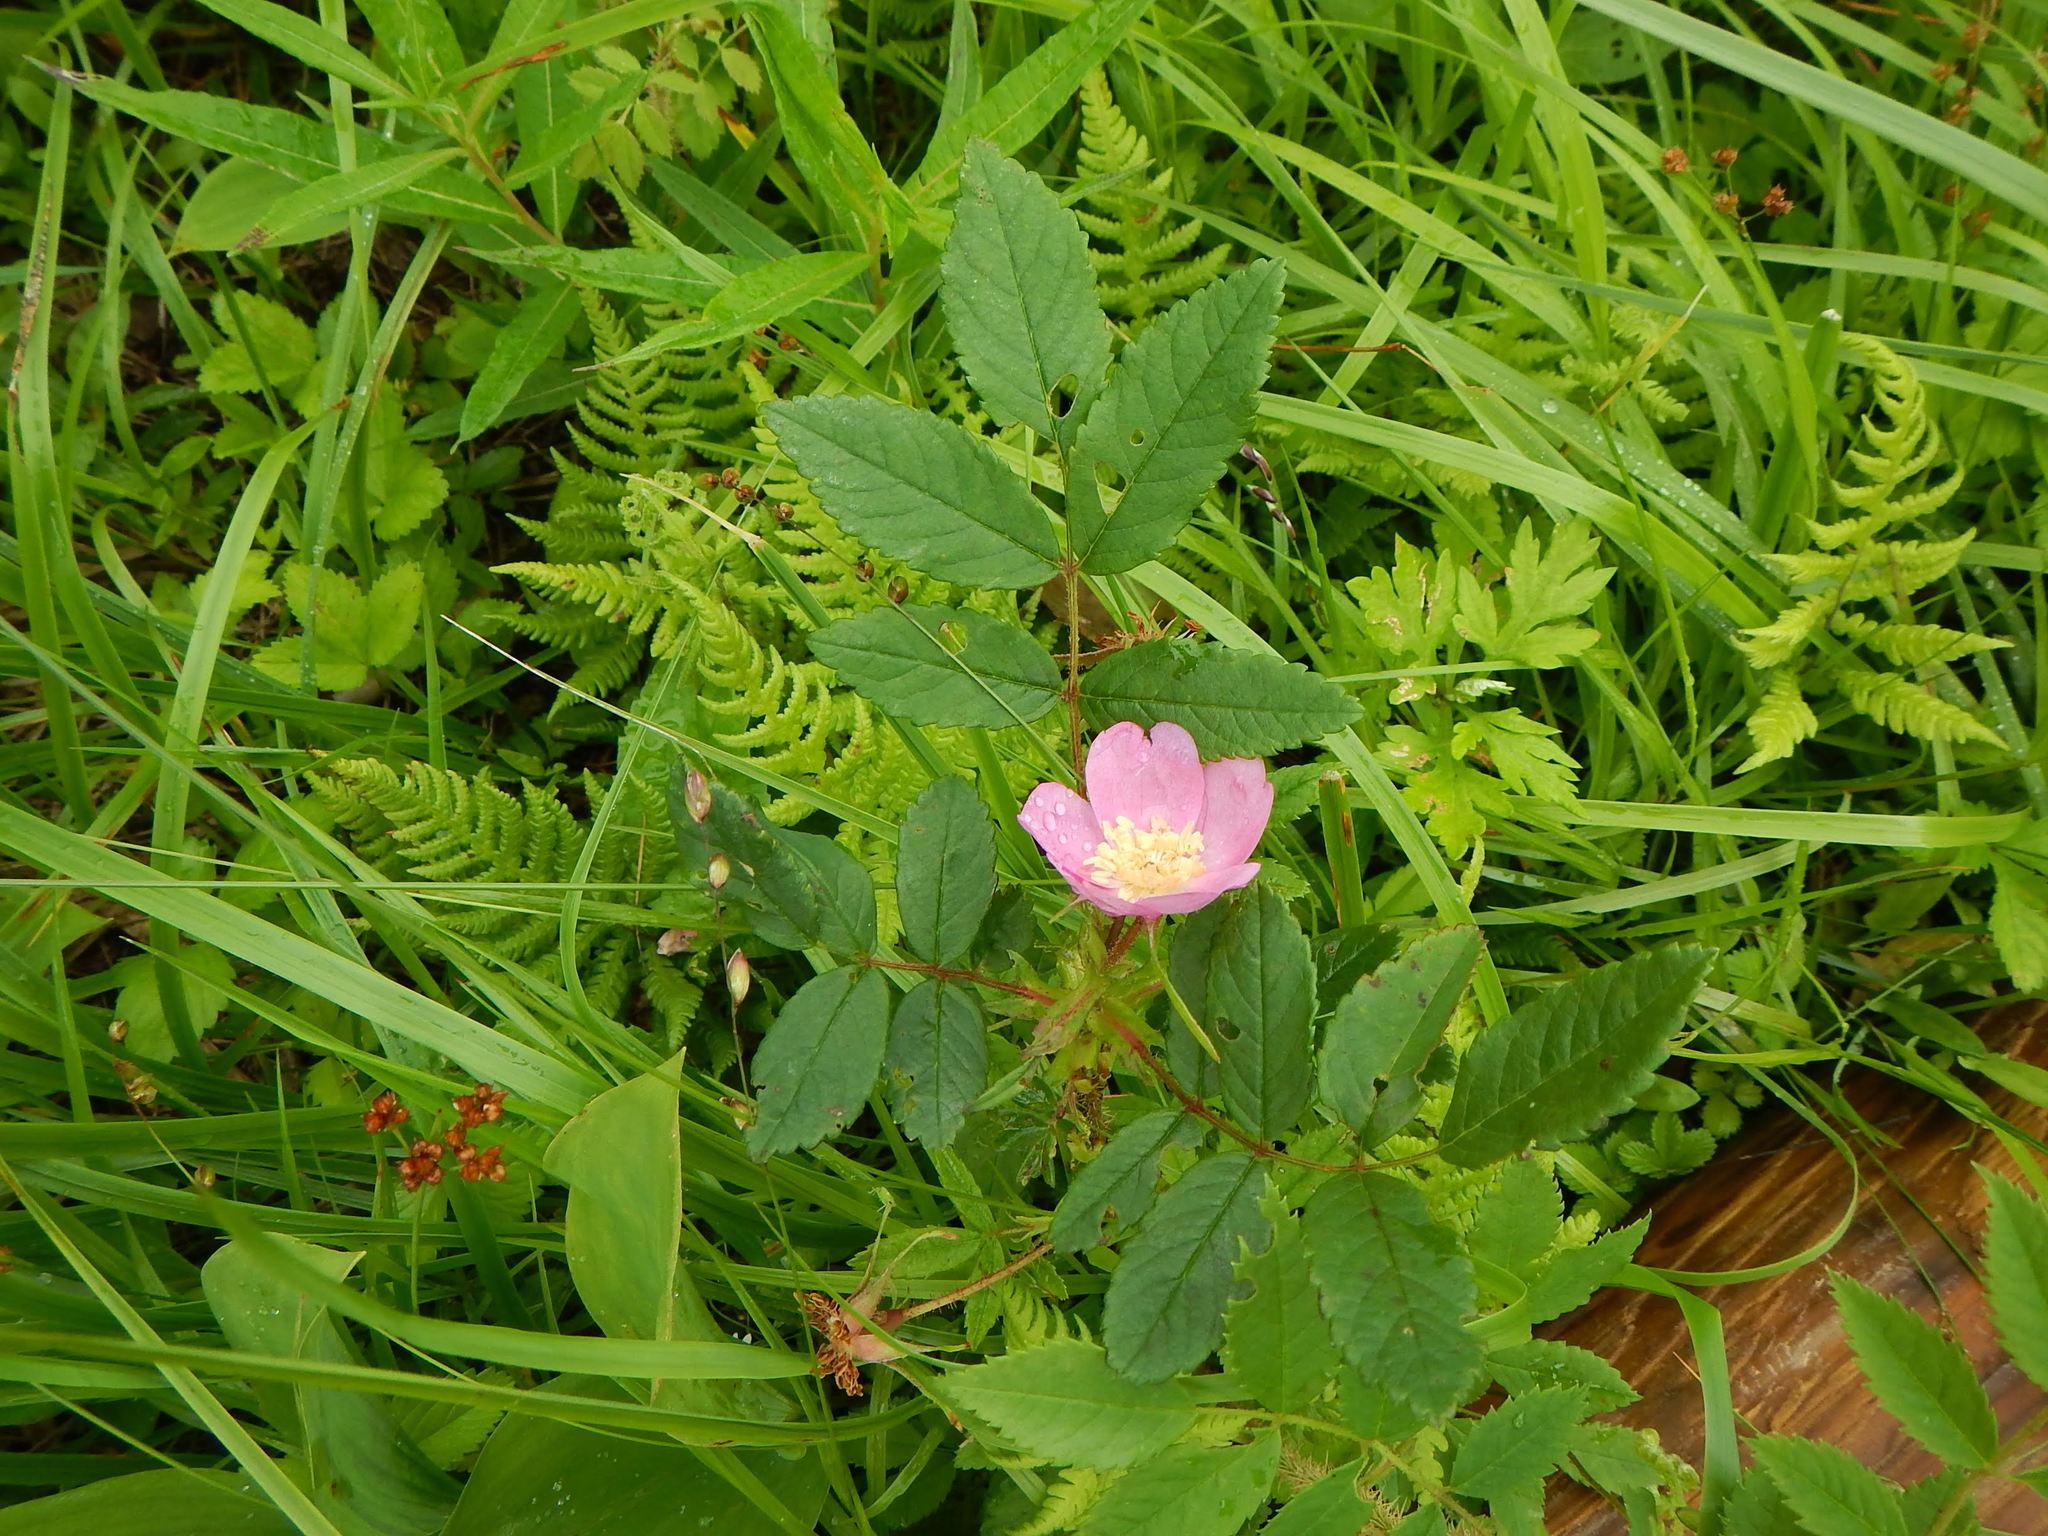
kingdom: Plantae
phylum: Tracheophyta
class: Magnoliopsida
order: Rosales
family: Rosaceae
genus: Rosa
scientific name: Rosa nipponensis
